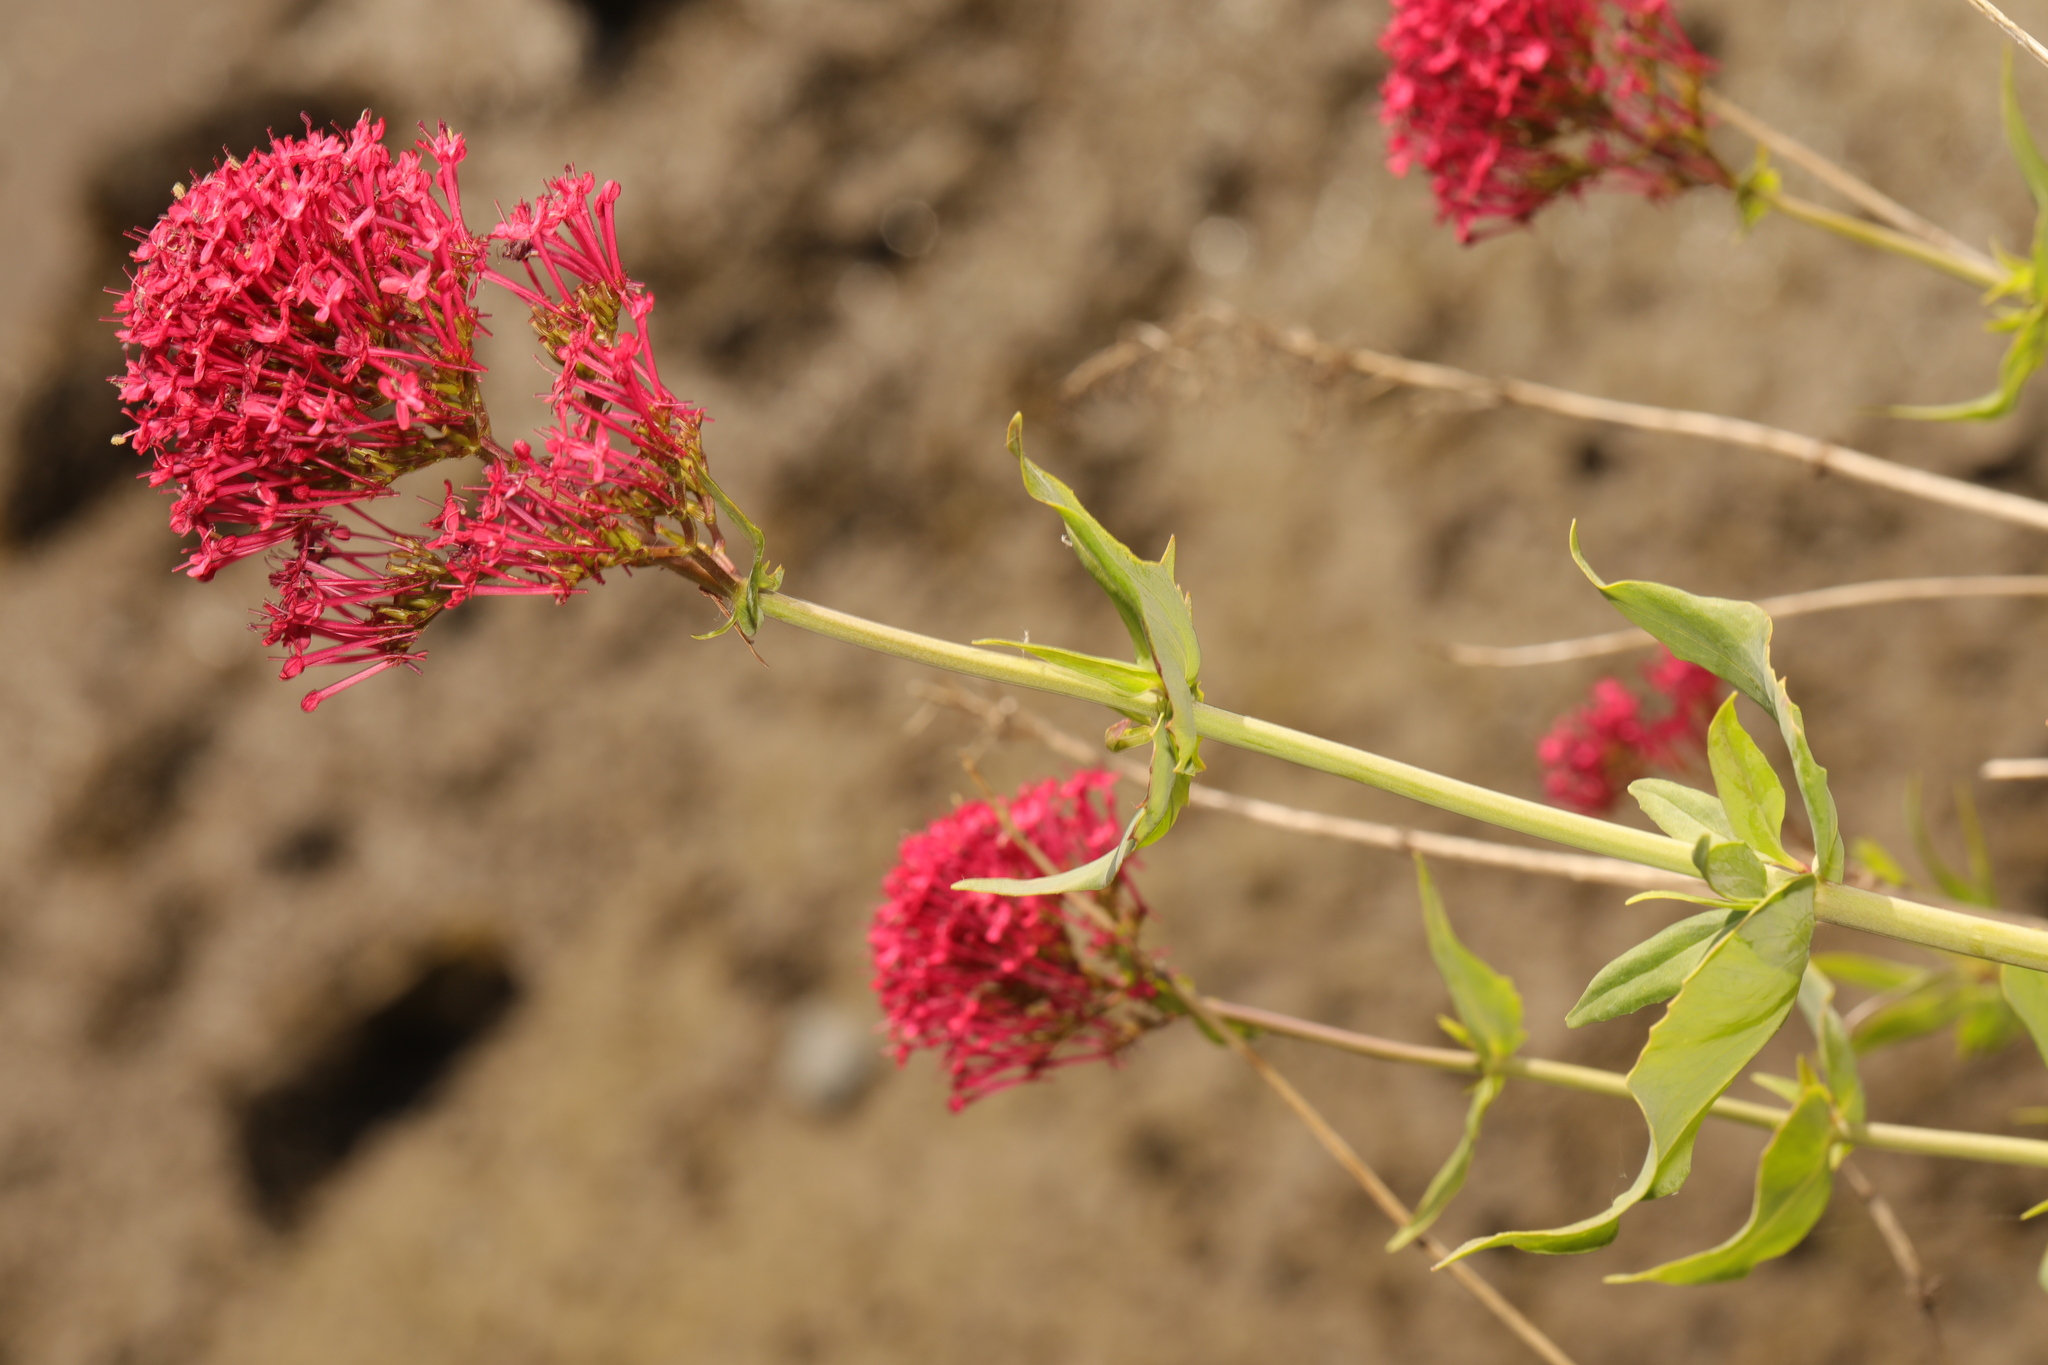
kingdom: Plantae
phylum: Tracheophyta
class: Magnoliopsida
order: Dipsacales
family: Caprifoliaceae
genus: Centranthus
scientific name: Centranthus ruber
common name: Red valerian
